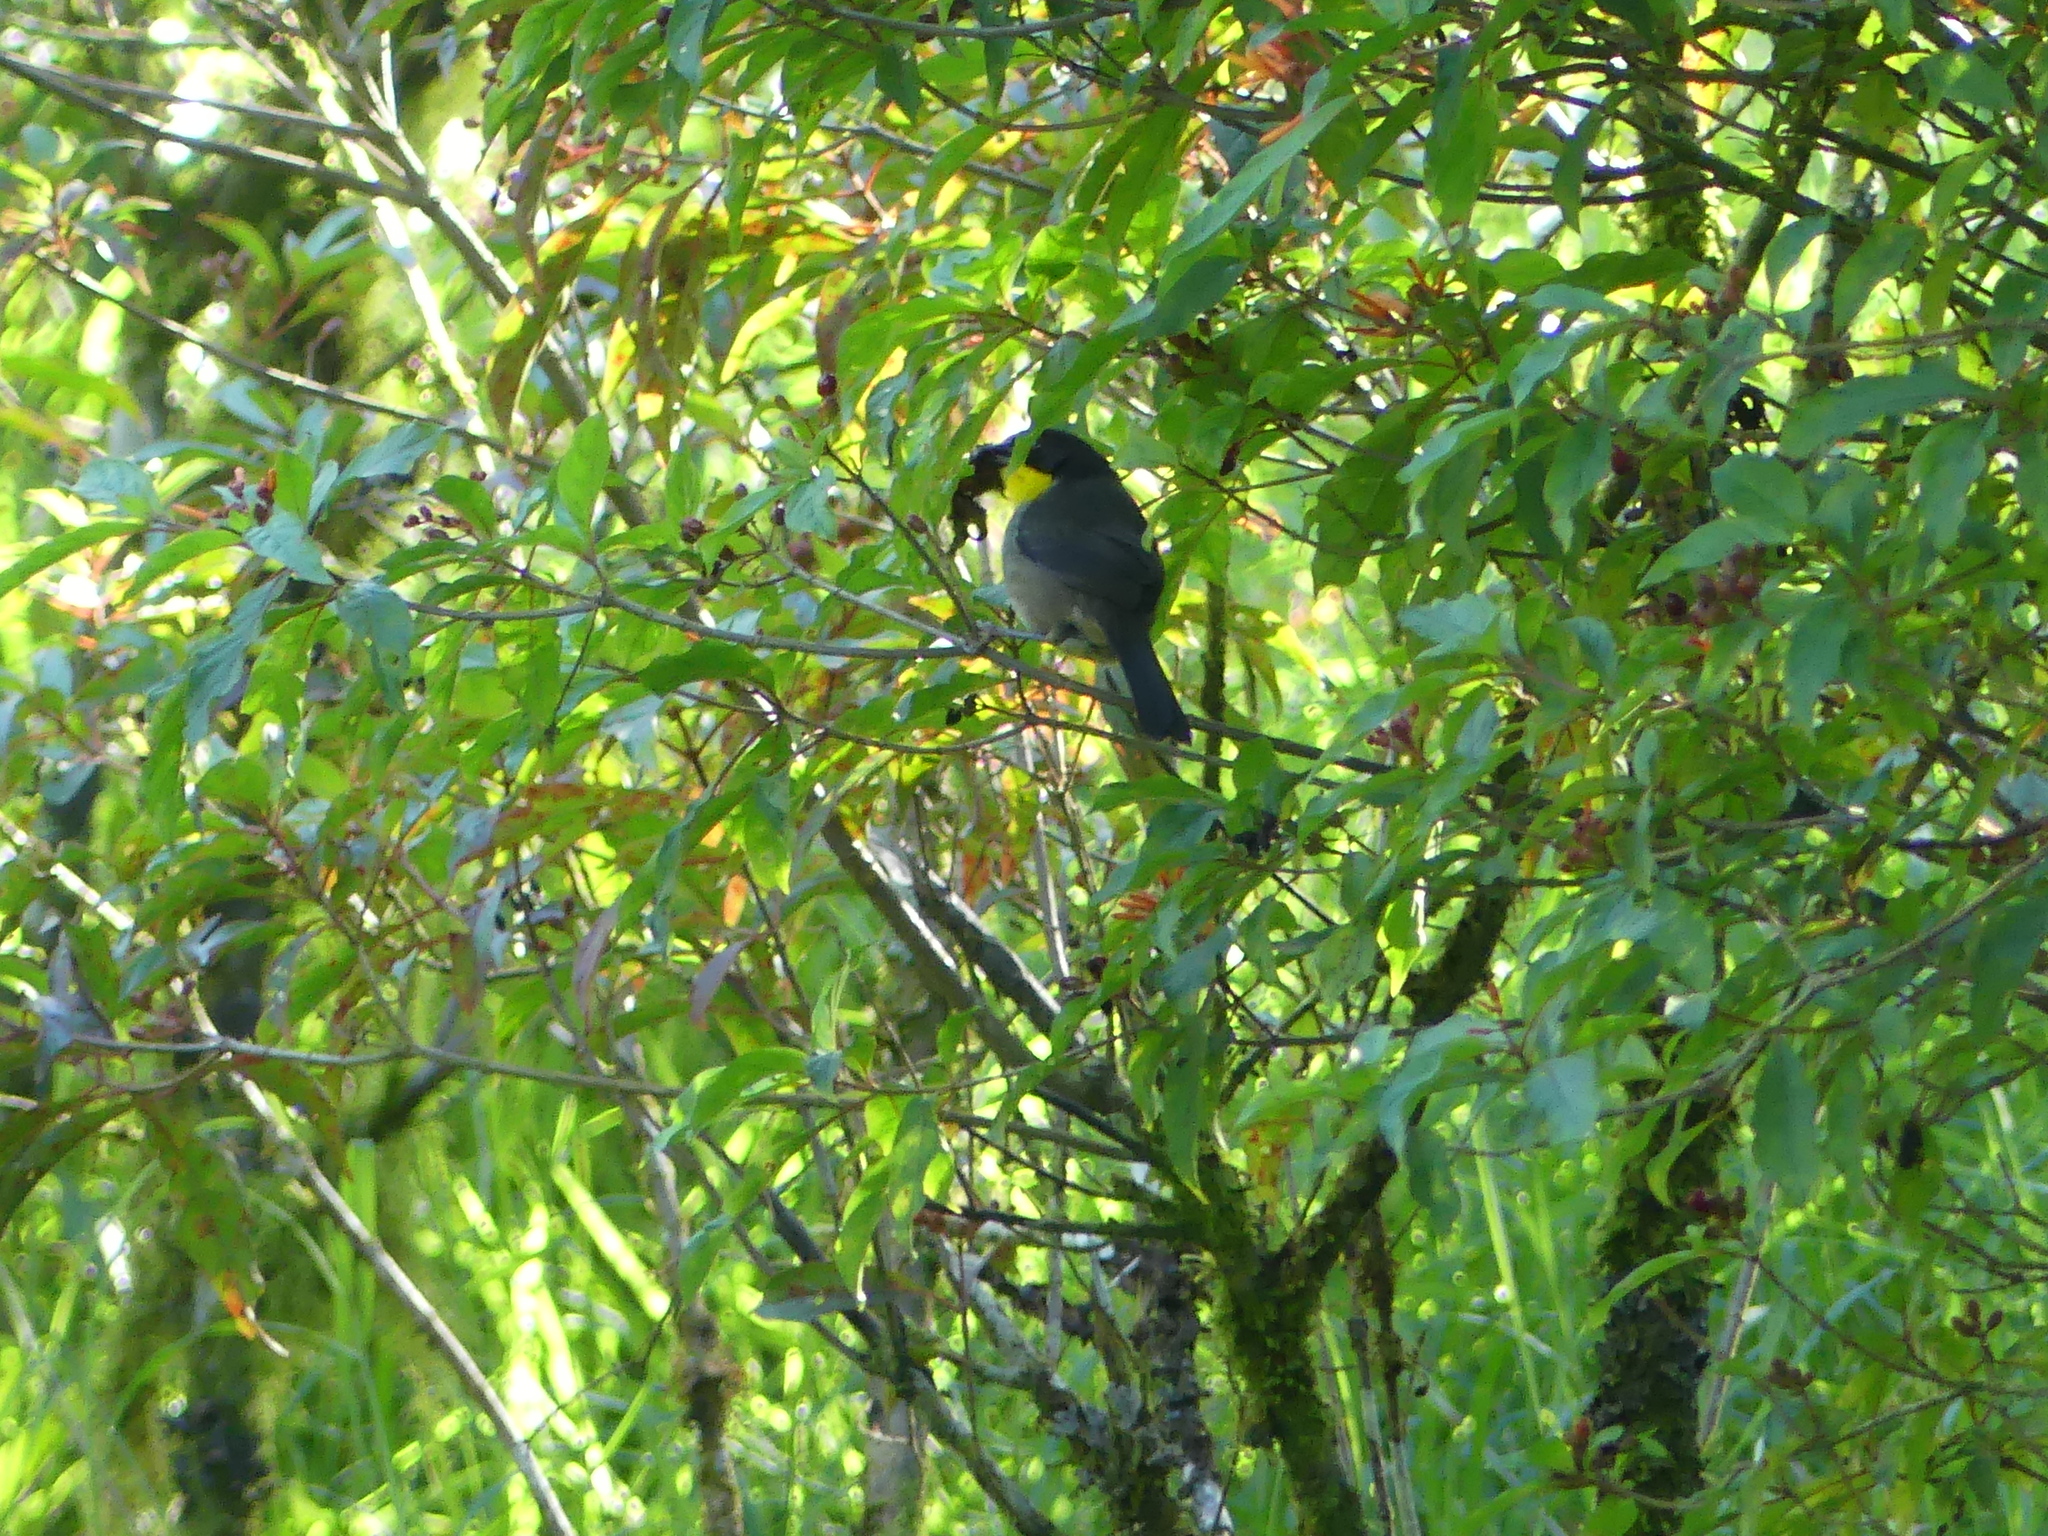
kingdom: Animalia
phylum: Chordata
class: Aves
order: Passeriformes
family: Passerellidae
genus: Atlapetes
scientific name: Atlapetes albinucha
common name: White-naped brush-finch
